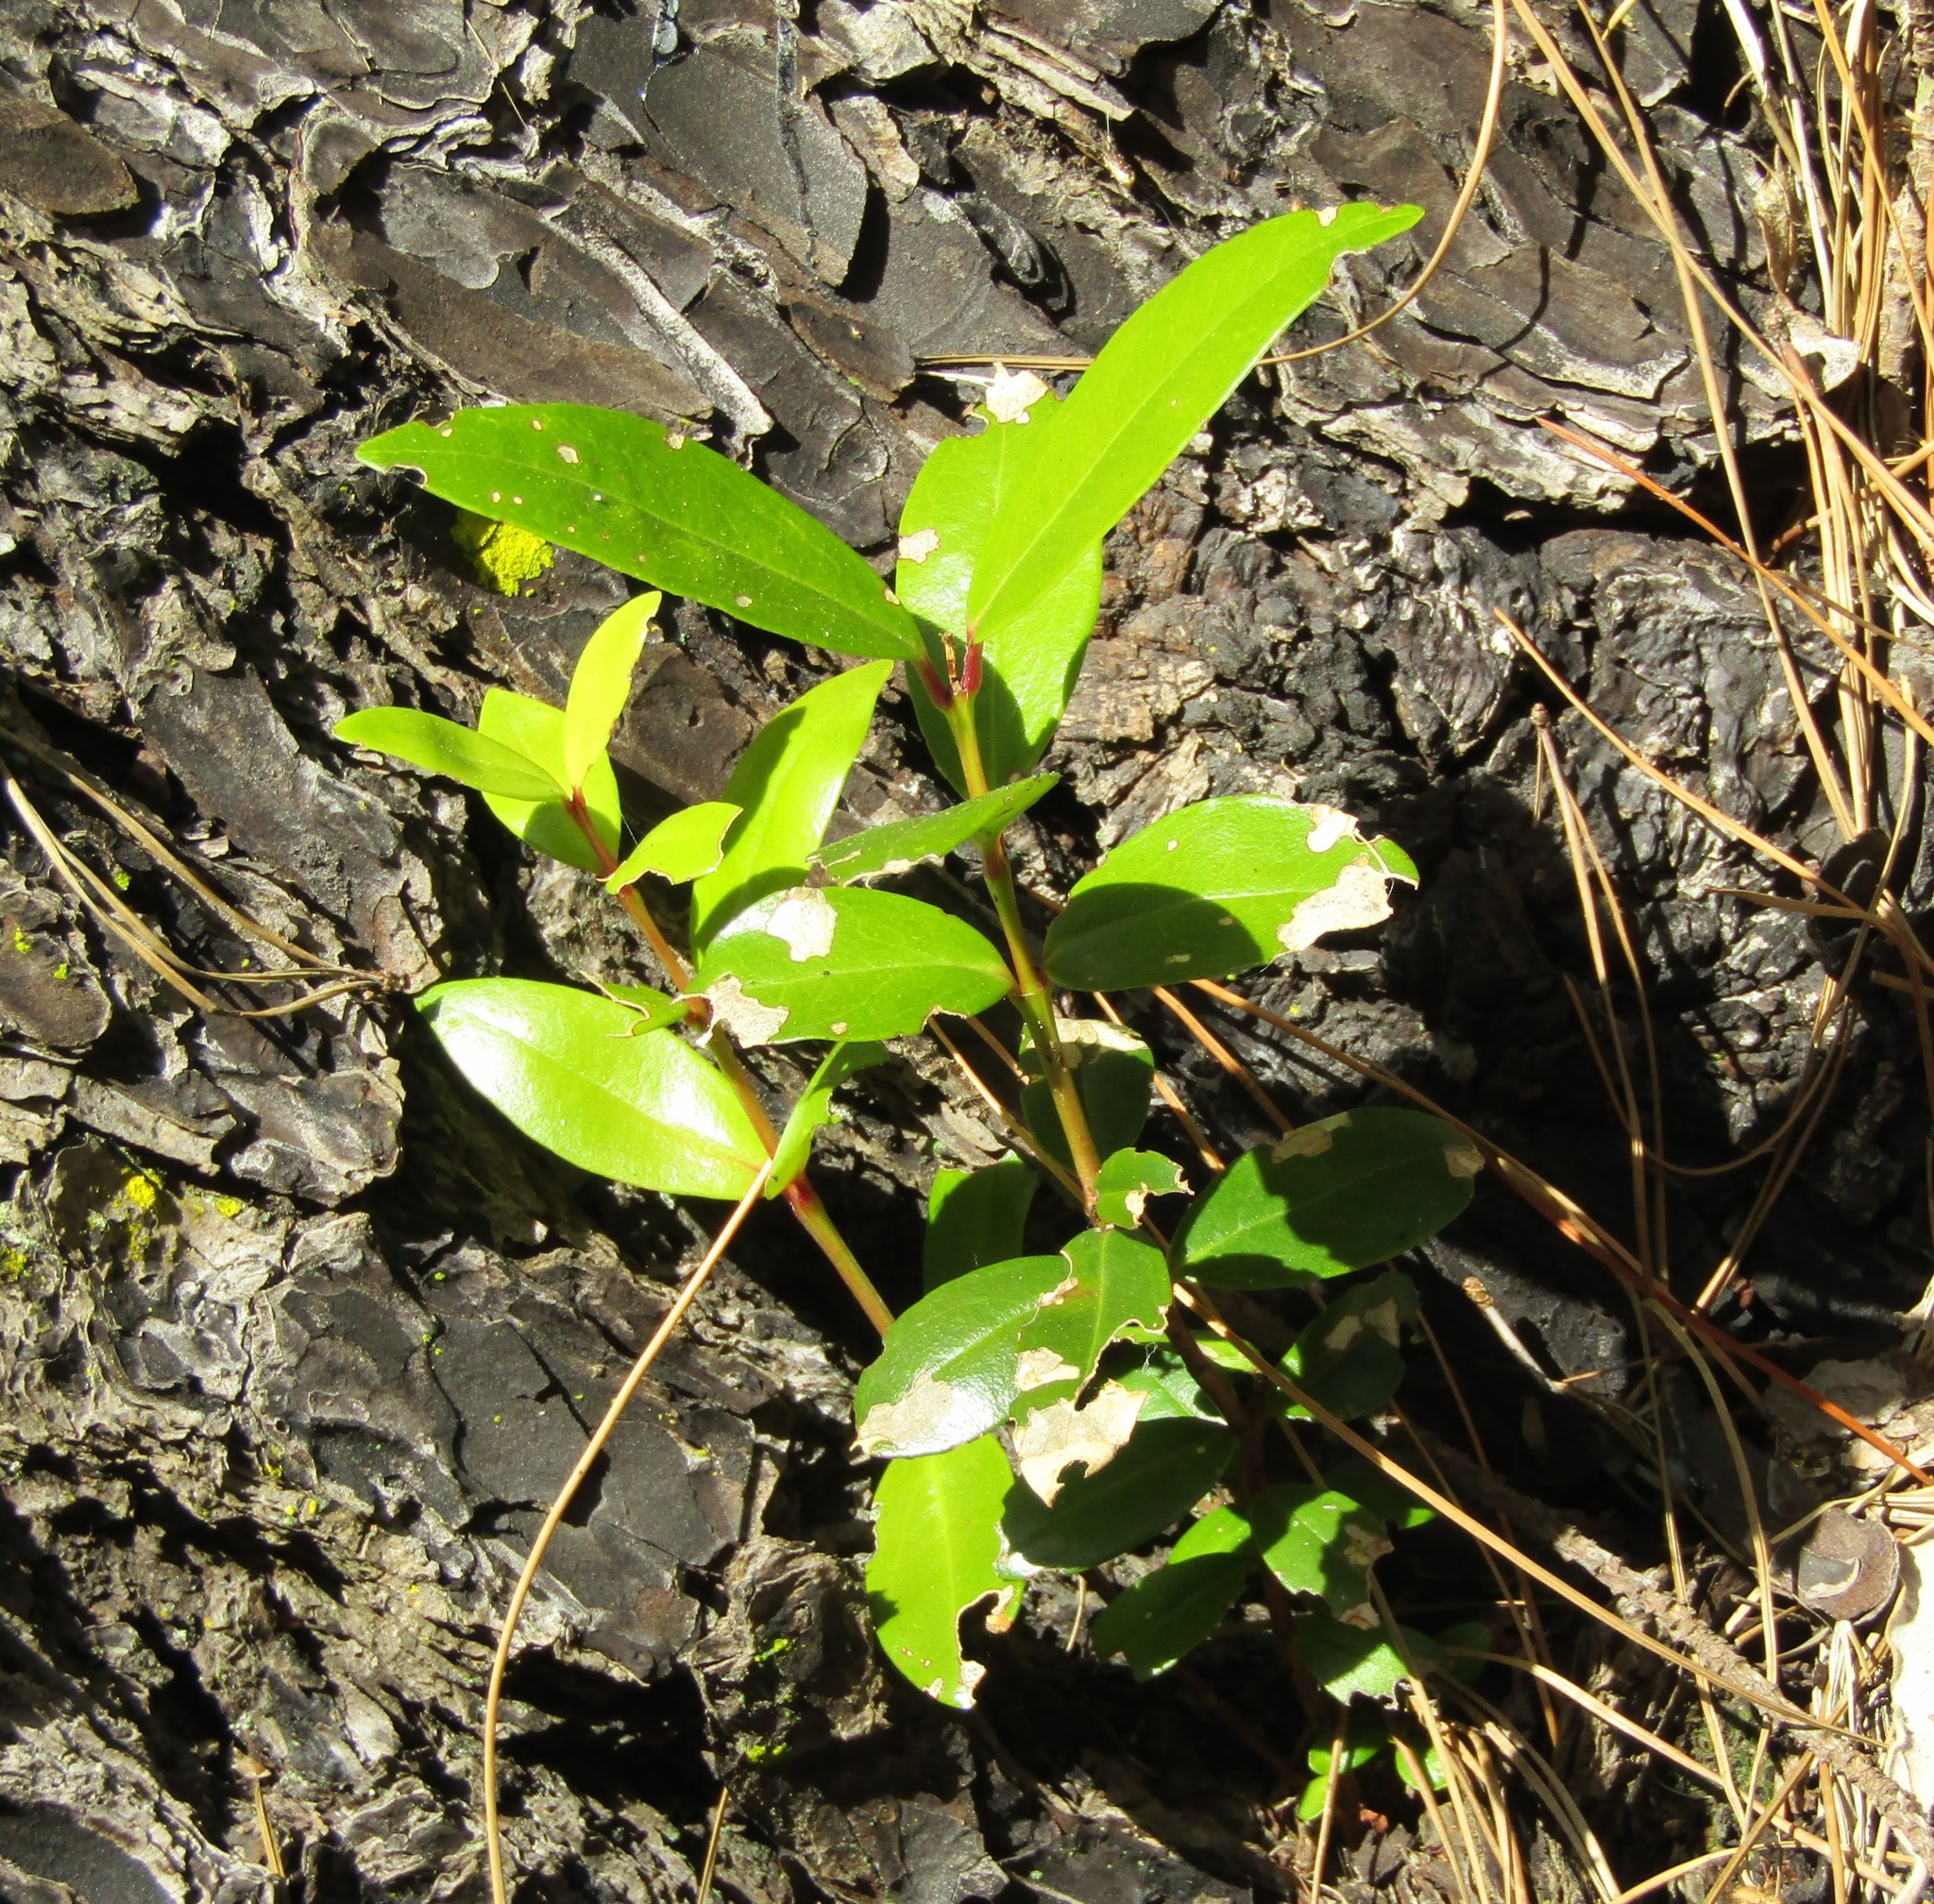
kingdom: Plantae
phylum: Tracheophyta
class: Magnoliopsida
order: Myrtales
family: Myrtaceae
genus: Metrosideros
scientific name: Metrosideros excelsa
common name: New zealand christmastree
